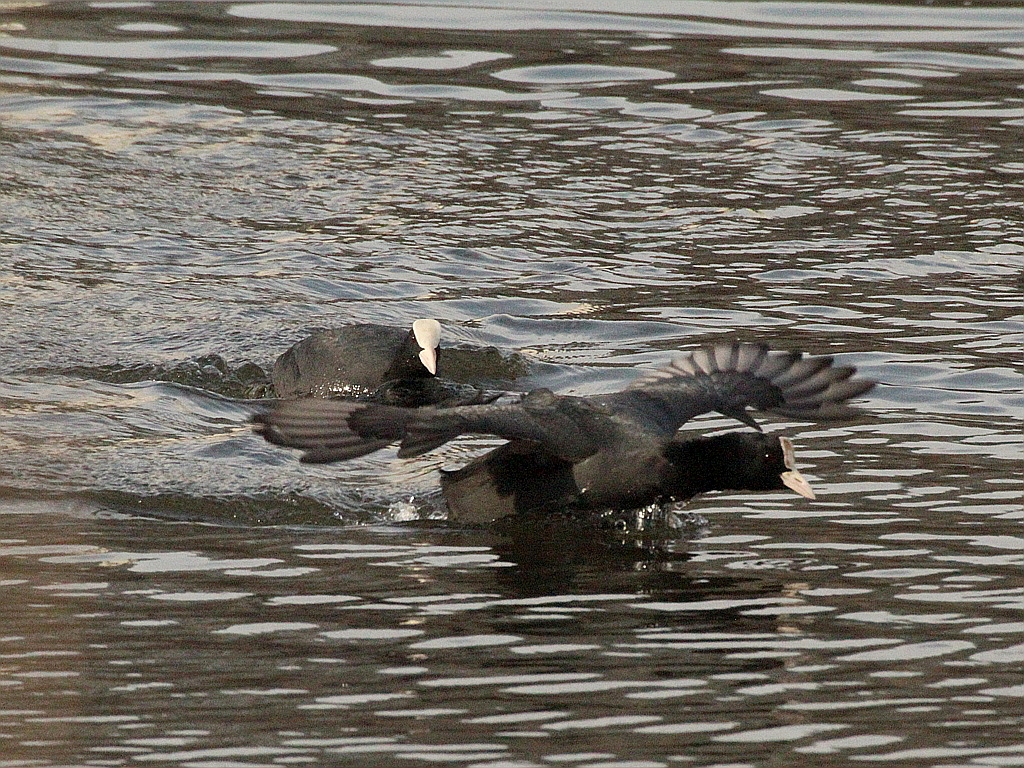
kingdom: Animalia
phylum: Chordata
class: Aves
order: Gruiformes
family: Rallidae
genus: Fulica
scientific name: Fulica atra
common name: Eurasian coot
